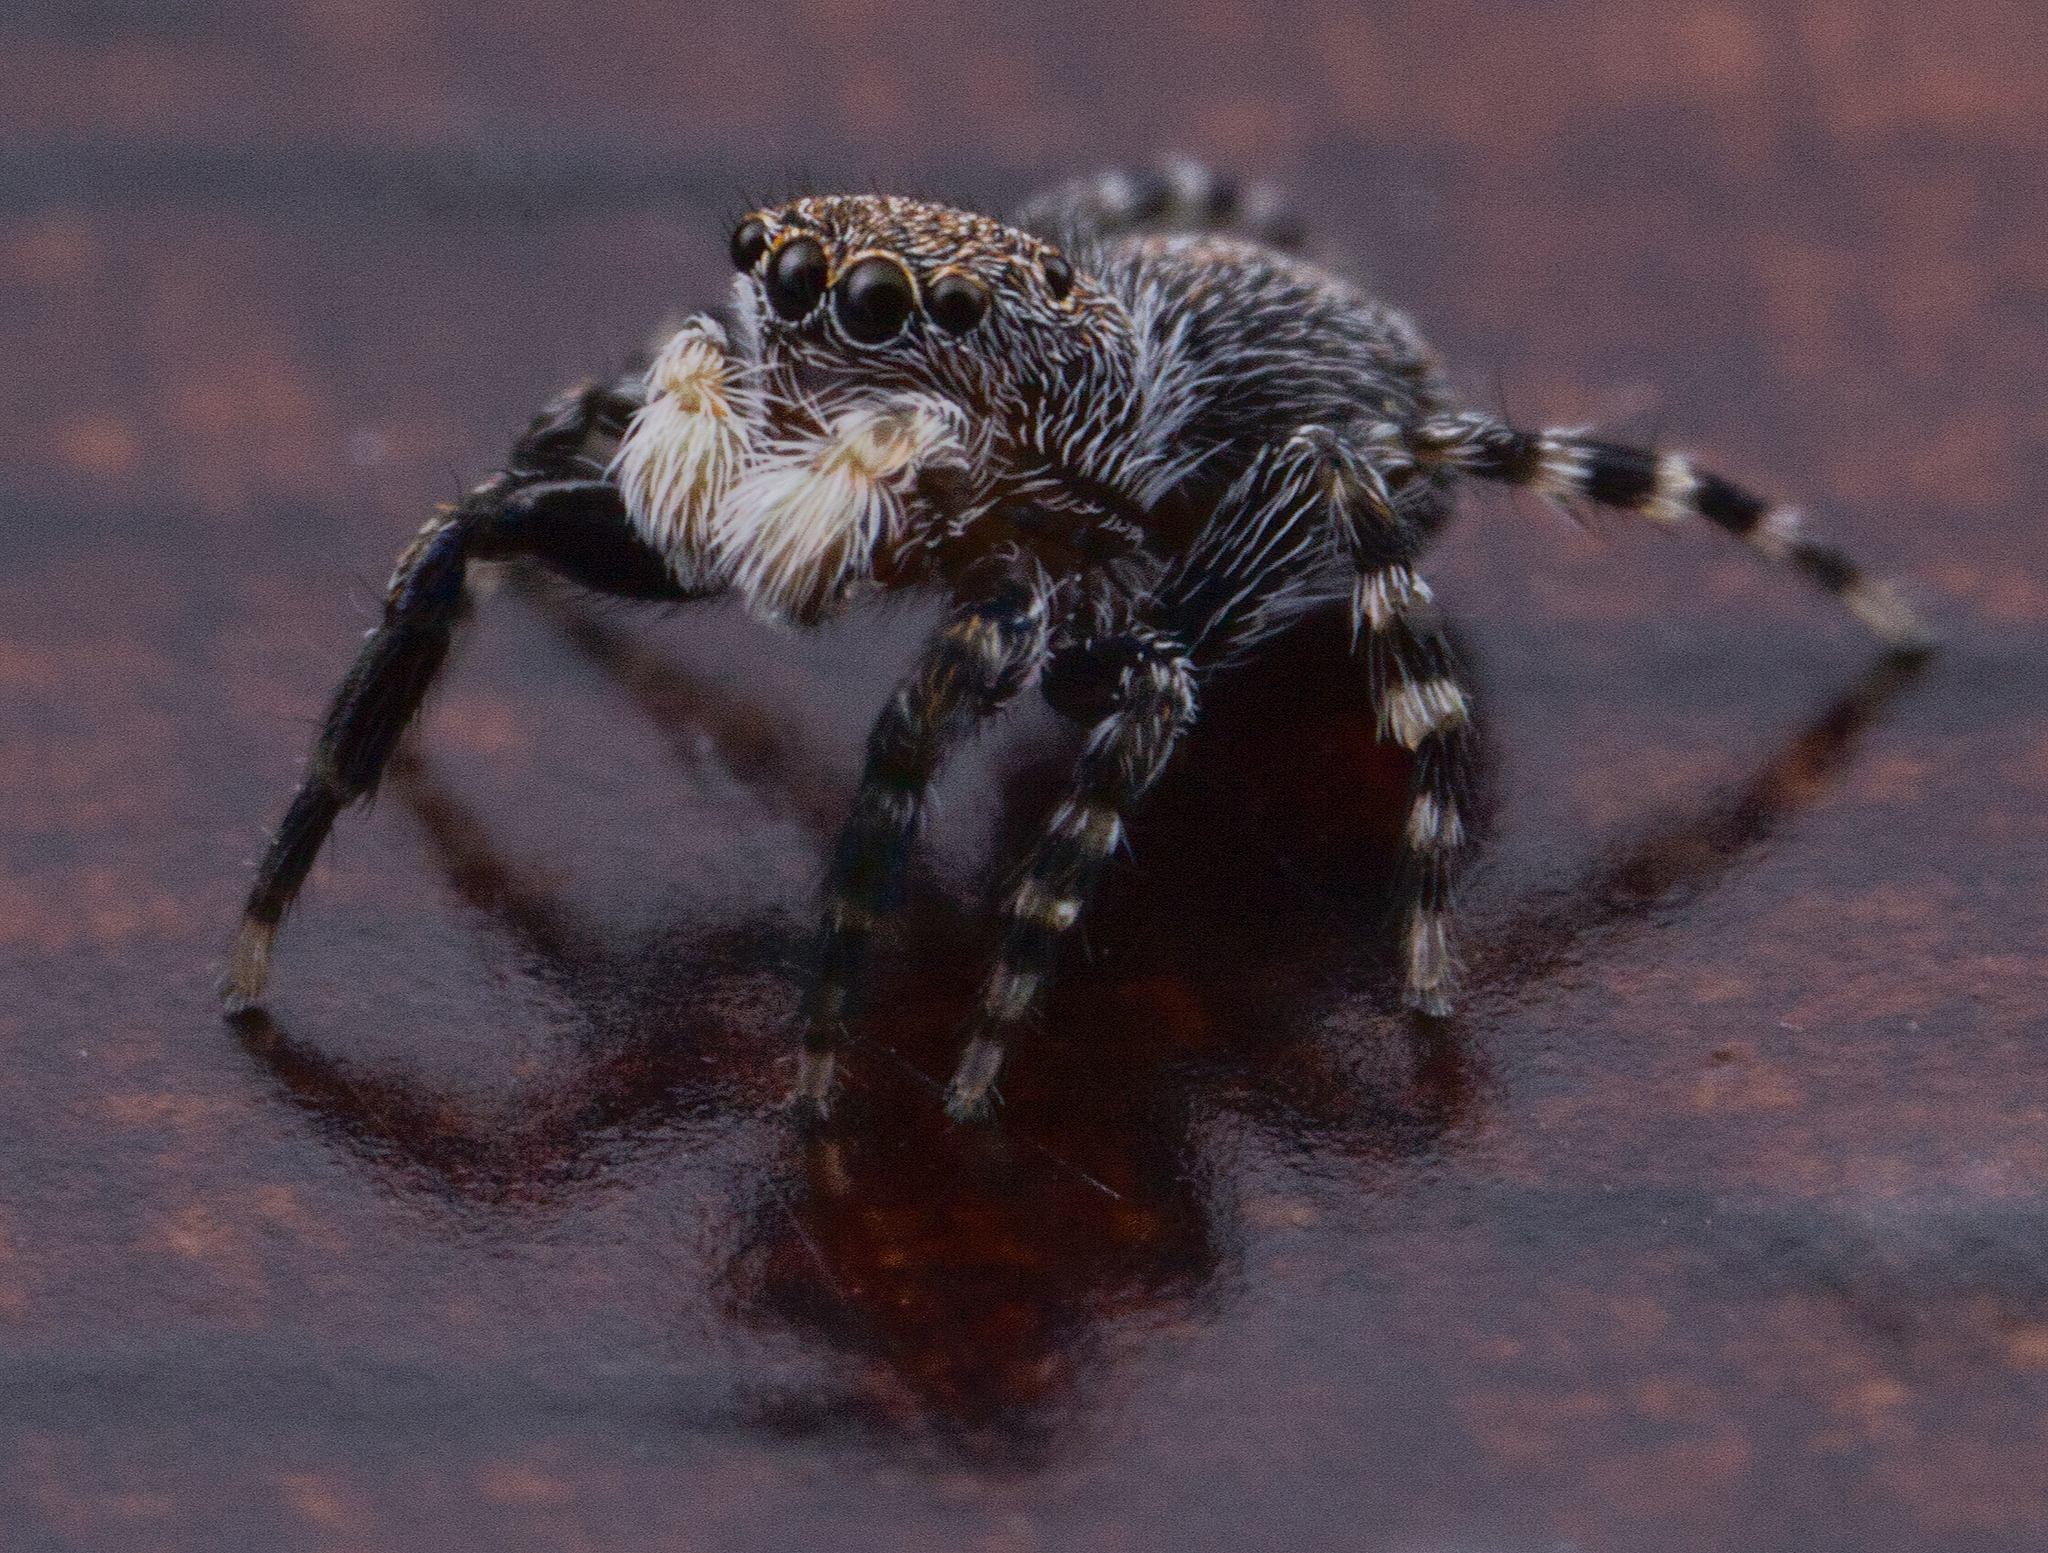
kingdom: Animalia
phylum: Arthropoda
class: Arachnida
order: Araneae
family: Salticidae
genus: Talavera
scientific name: Talavera minuta
